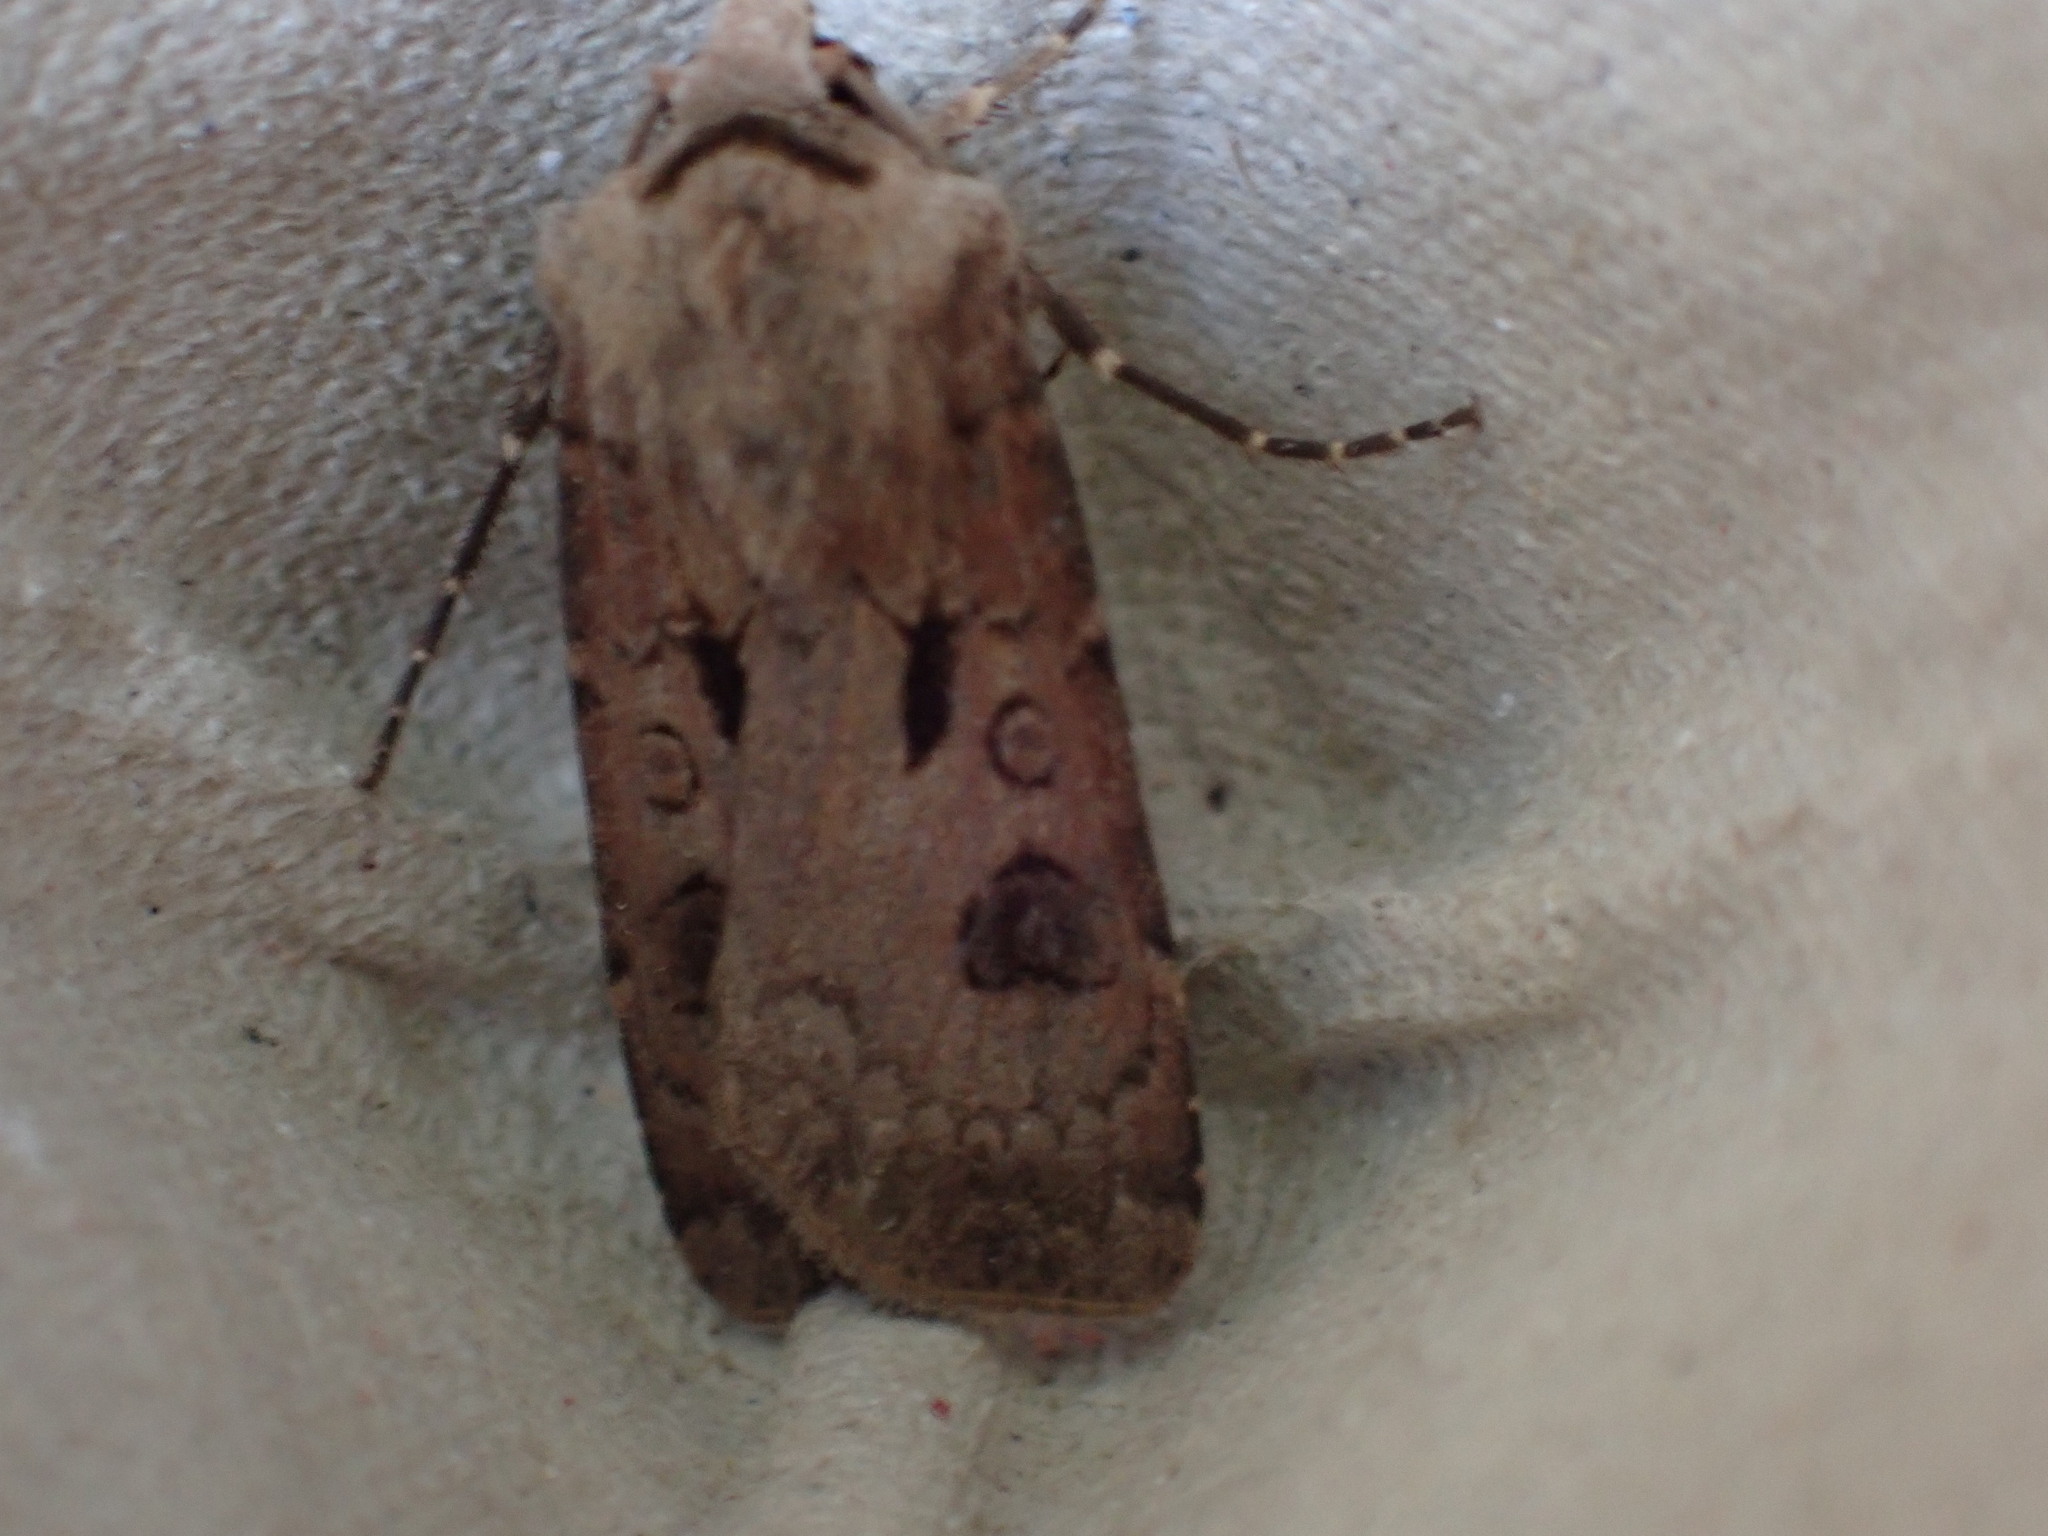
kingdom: Animalia
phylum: Arthropoda
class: Insecta
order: Lepidoptera
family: Noctuidae
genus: Agrotis
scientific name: Agrotis exclamationis
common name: Heart and dart
